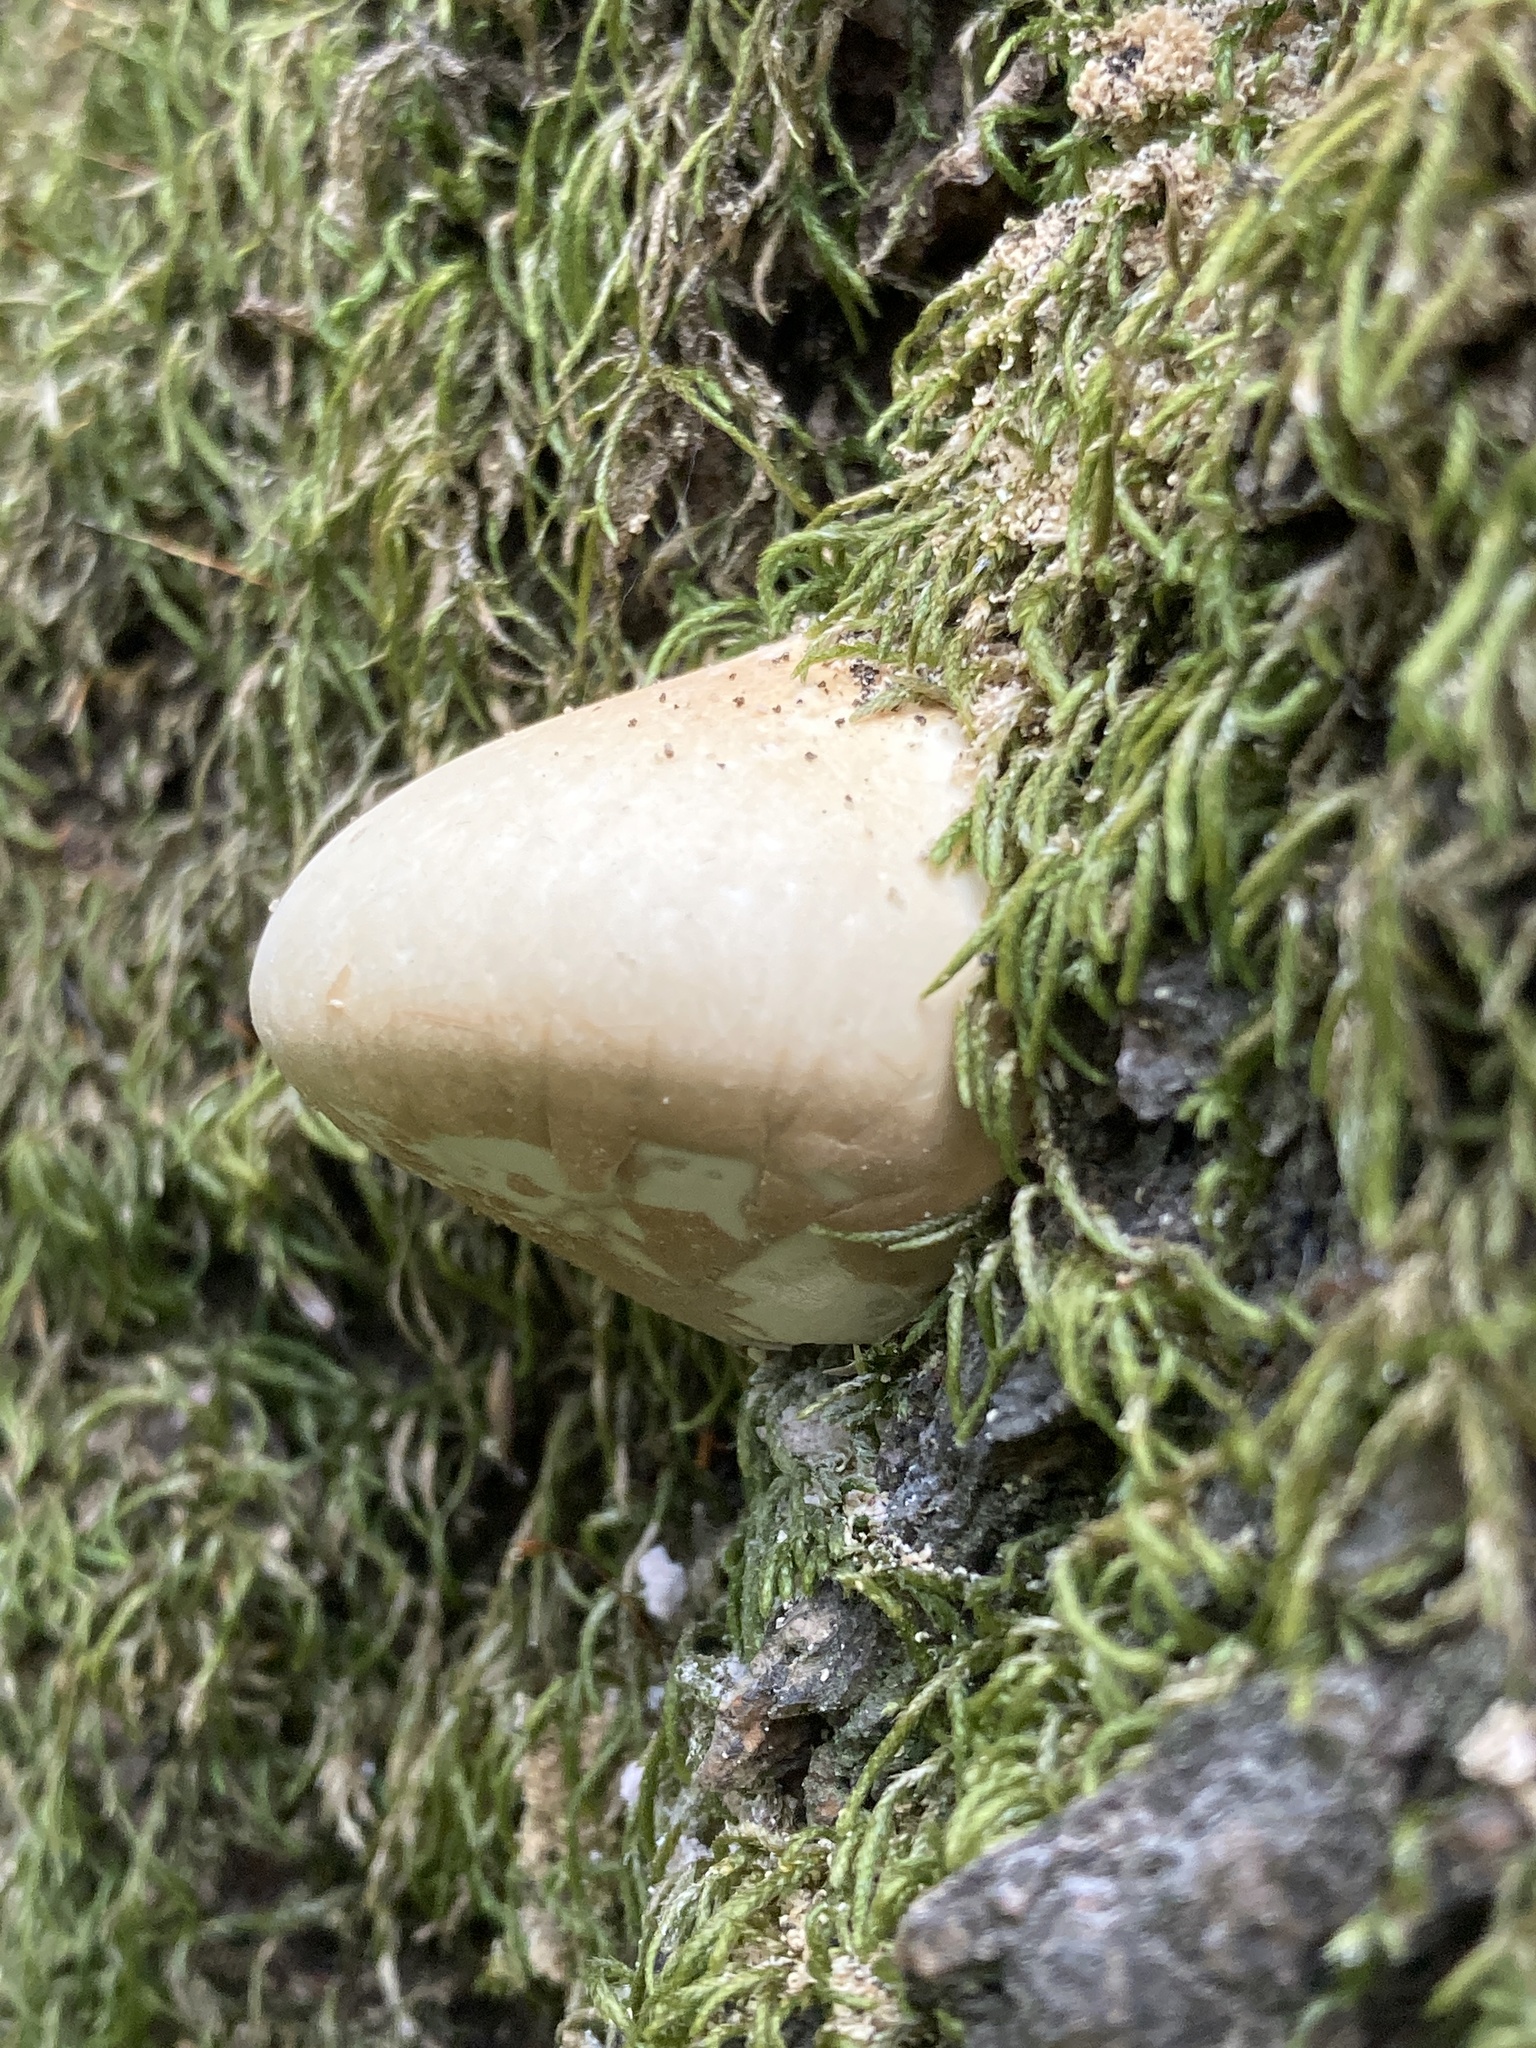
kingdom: Fungi
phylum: Basidiomycota
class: Agaricomycetes
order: Polyporales
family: Polyporaceae
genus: Cryptoporus
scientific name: Cryptoporus volvatus
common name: Veiled polypore
